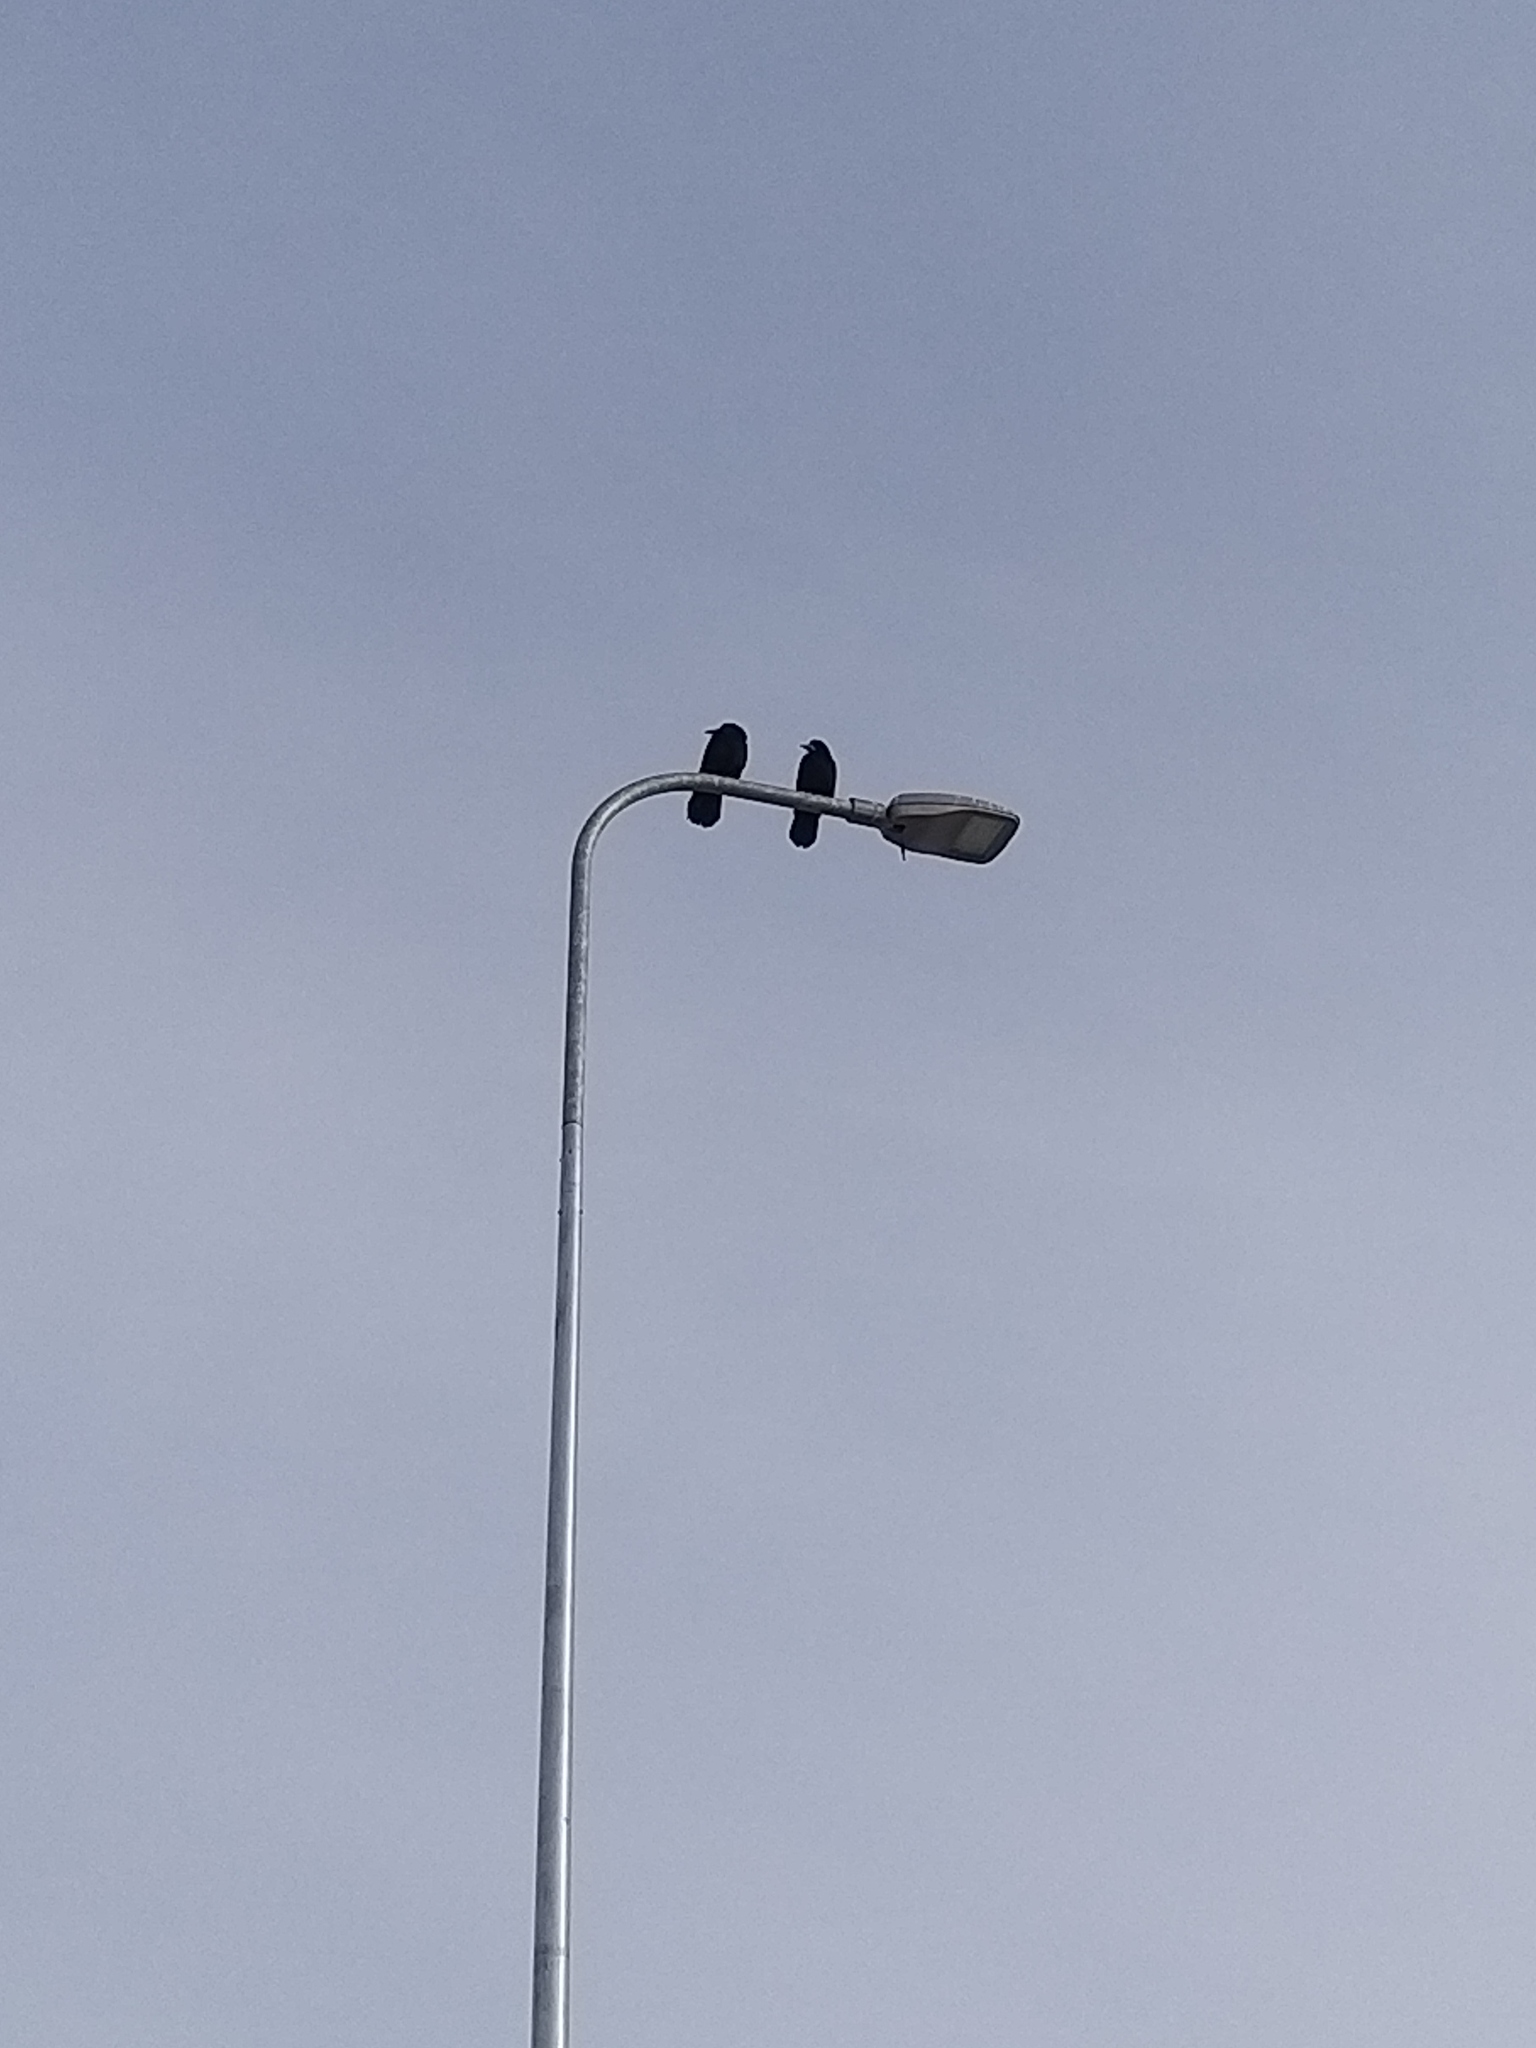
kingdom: Animalia
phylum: Chordata
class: Aves
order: Passeriformes
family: Corvidae
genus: Corvus
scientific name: Corvus frugilegus
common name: Rook
